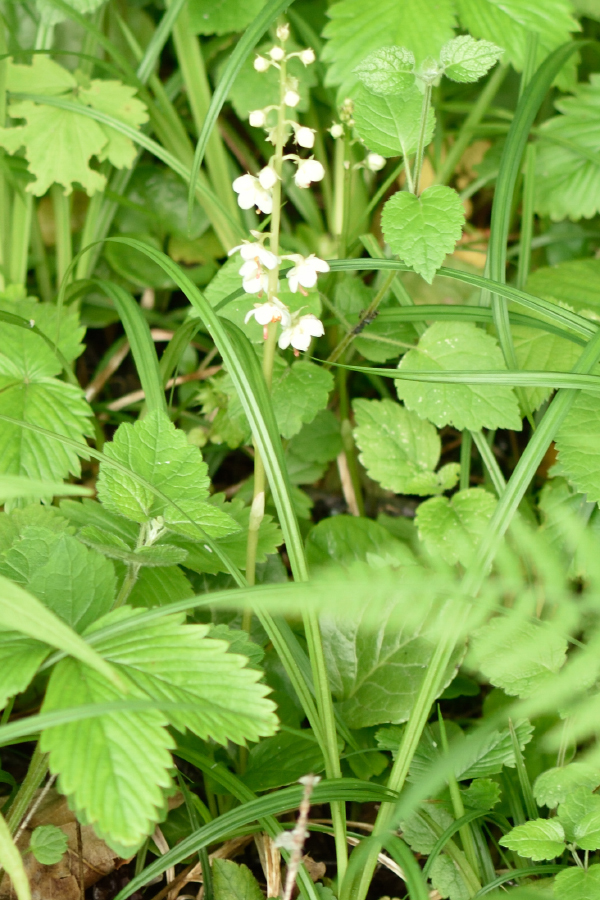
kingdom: Plantae
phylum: Tracheophyta
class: Magnoliopsida
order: Ericales
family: Ericaceae
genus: Pyrola
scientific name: Pyrola rotundifolia
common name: Round-leaved wintergreen
